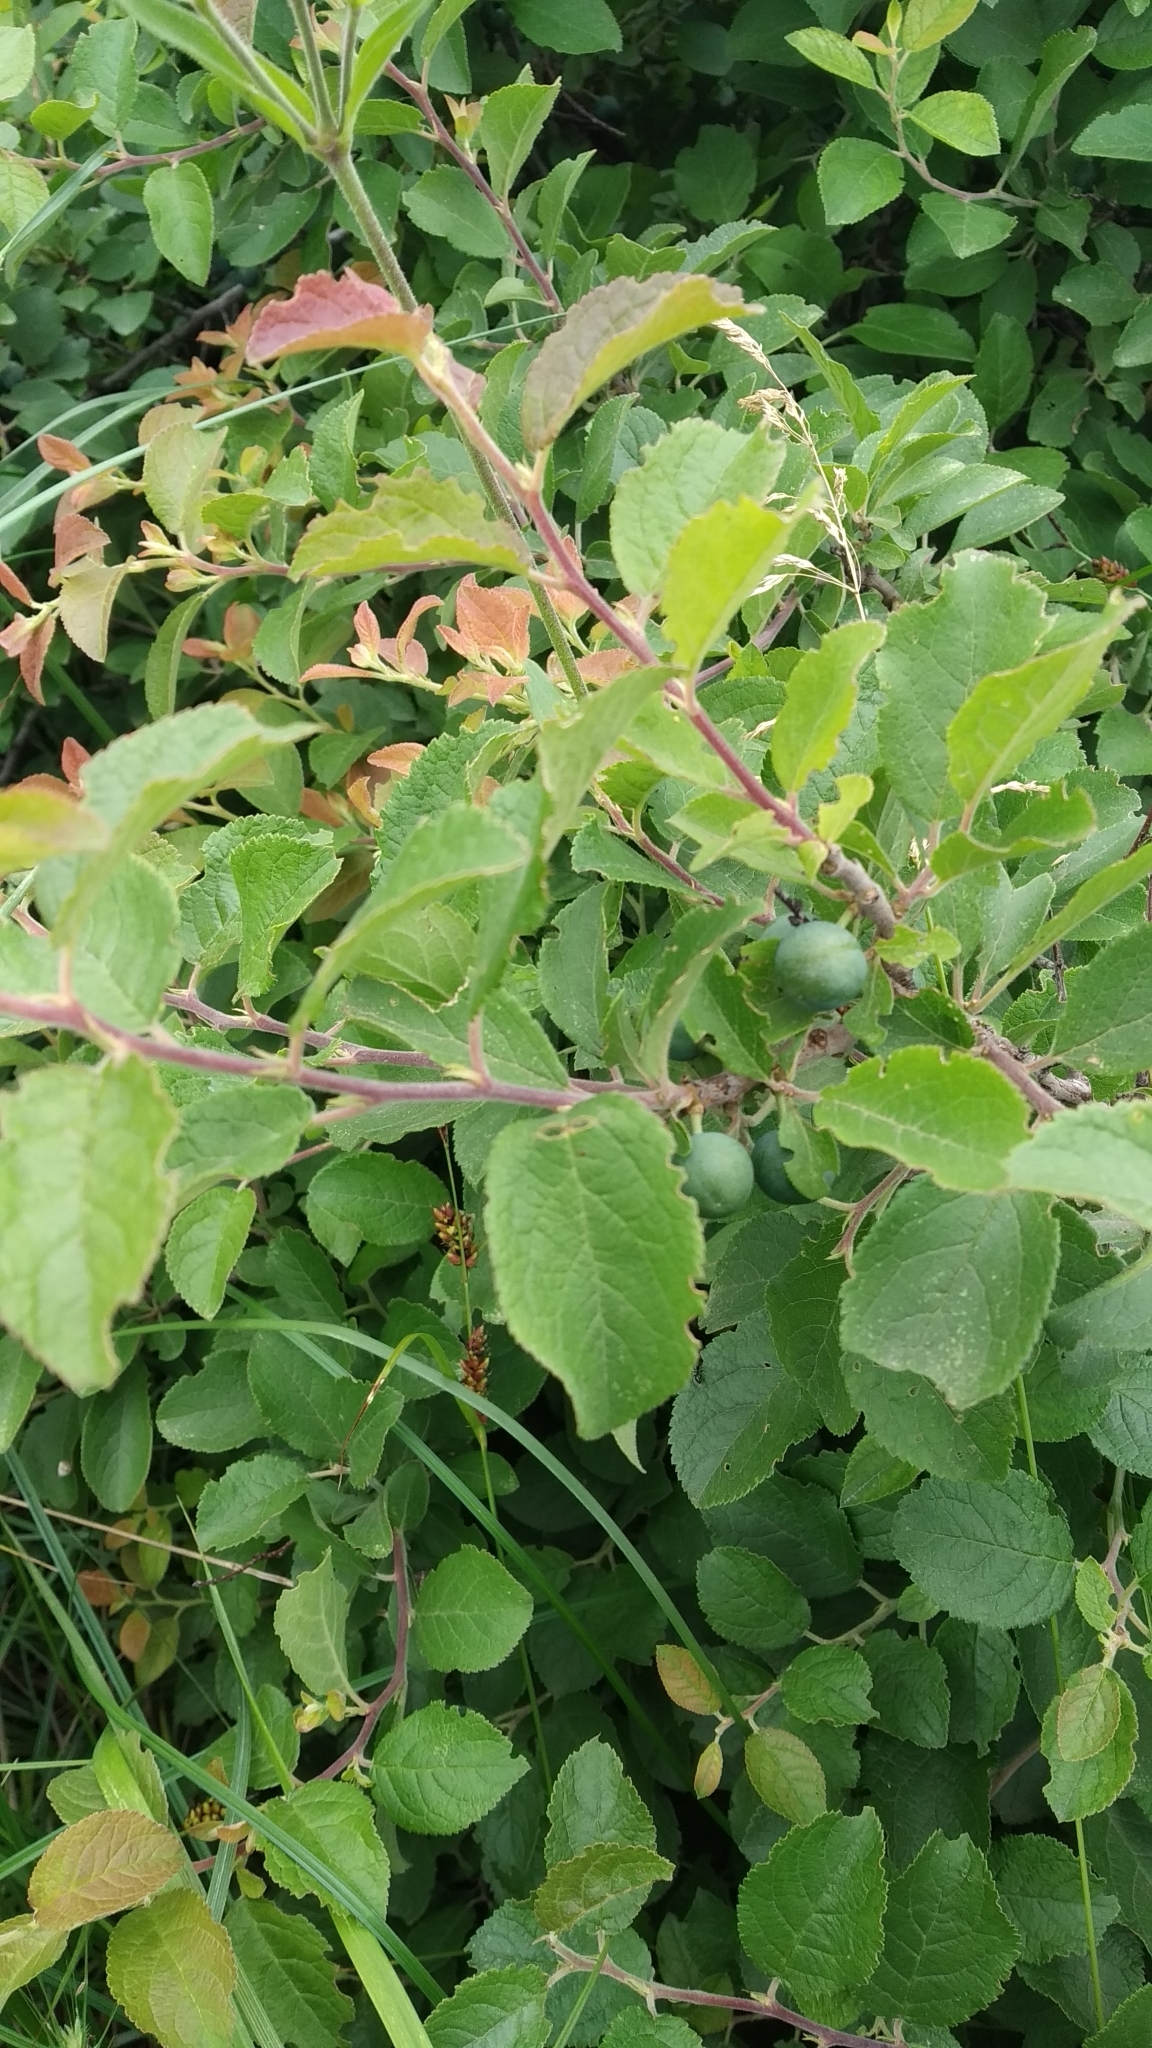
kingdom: Plantae
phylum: Tracheophyta
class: Magnoliopsida
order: Rosales
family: Rosaceae
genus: Prunus
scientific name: Prunus spinosa
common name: Blackthorn
